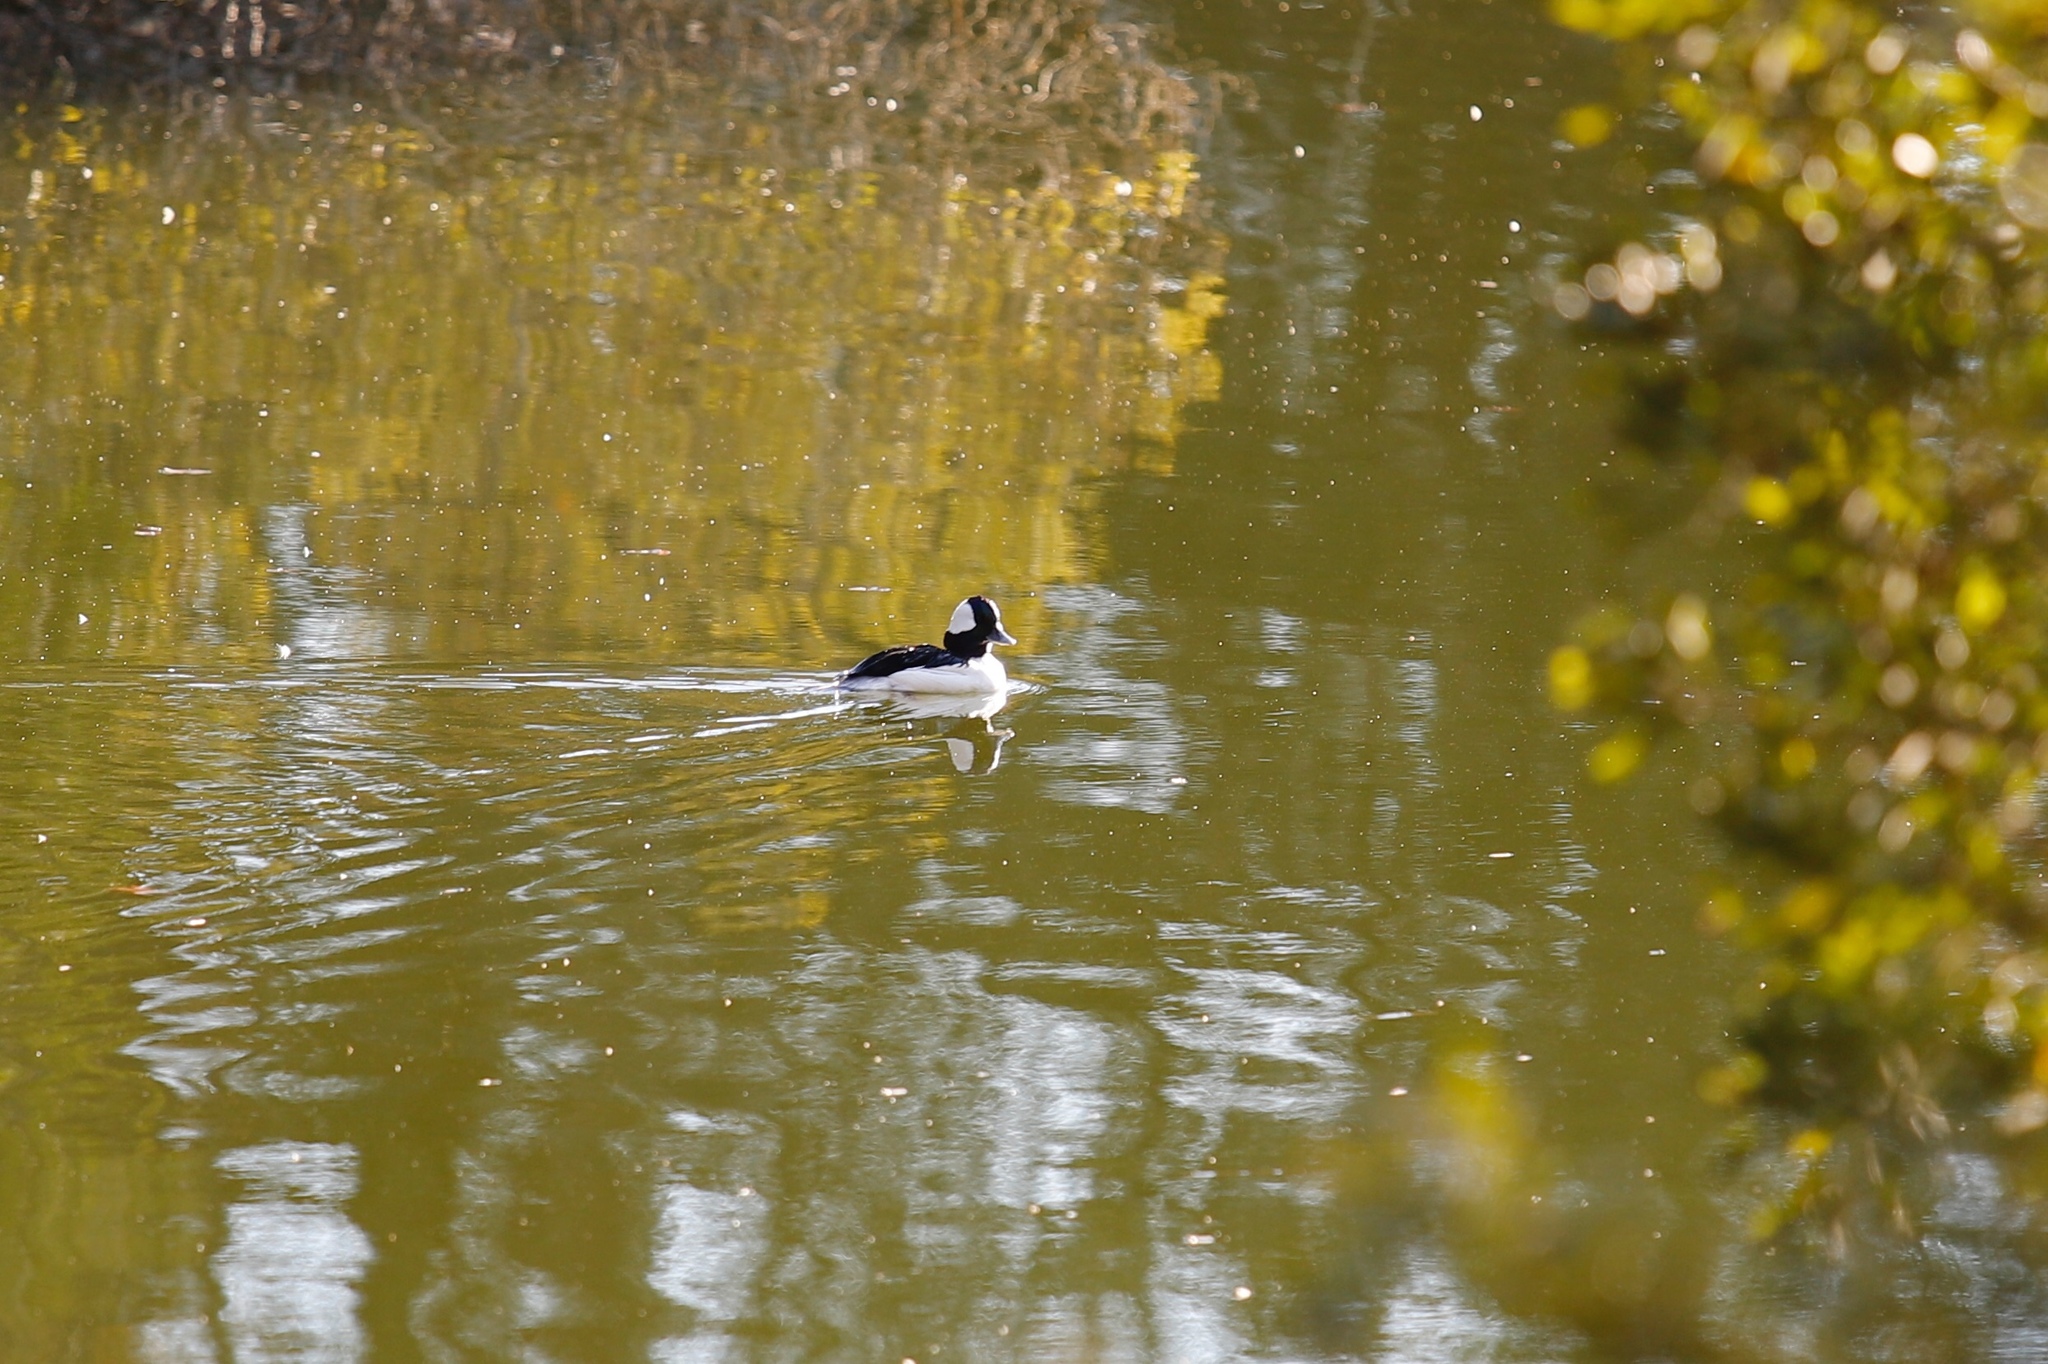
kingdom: Animalia
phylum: Chordata
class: Aves
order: Anseriformes
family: Anatidae
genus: Bucephala
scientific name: Bucephala albeola
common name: Bufflehead
